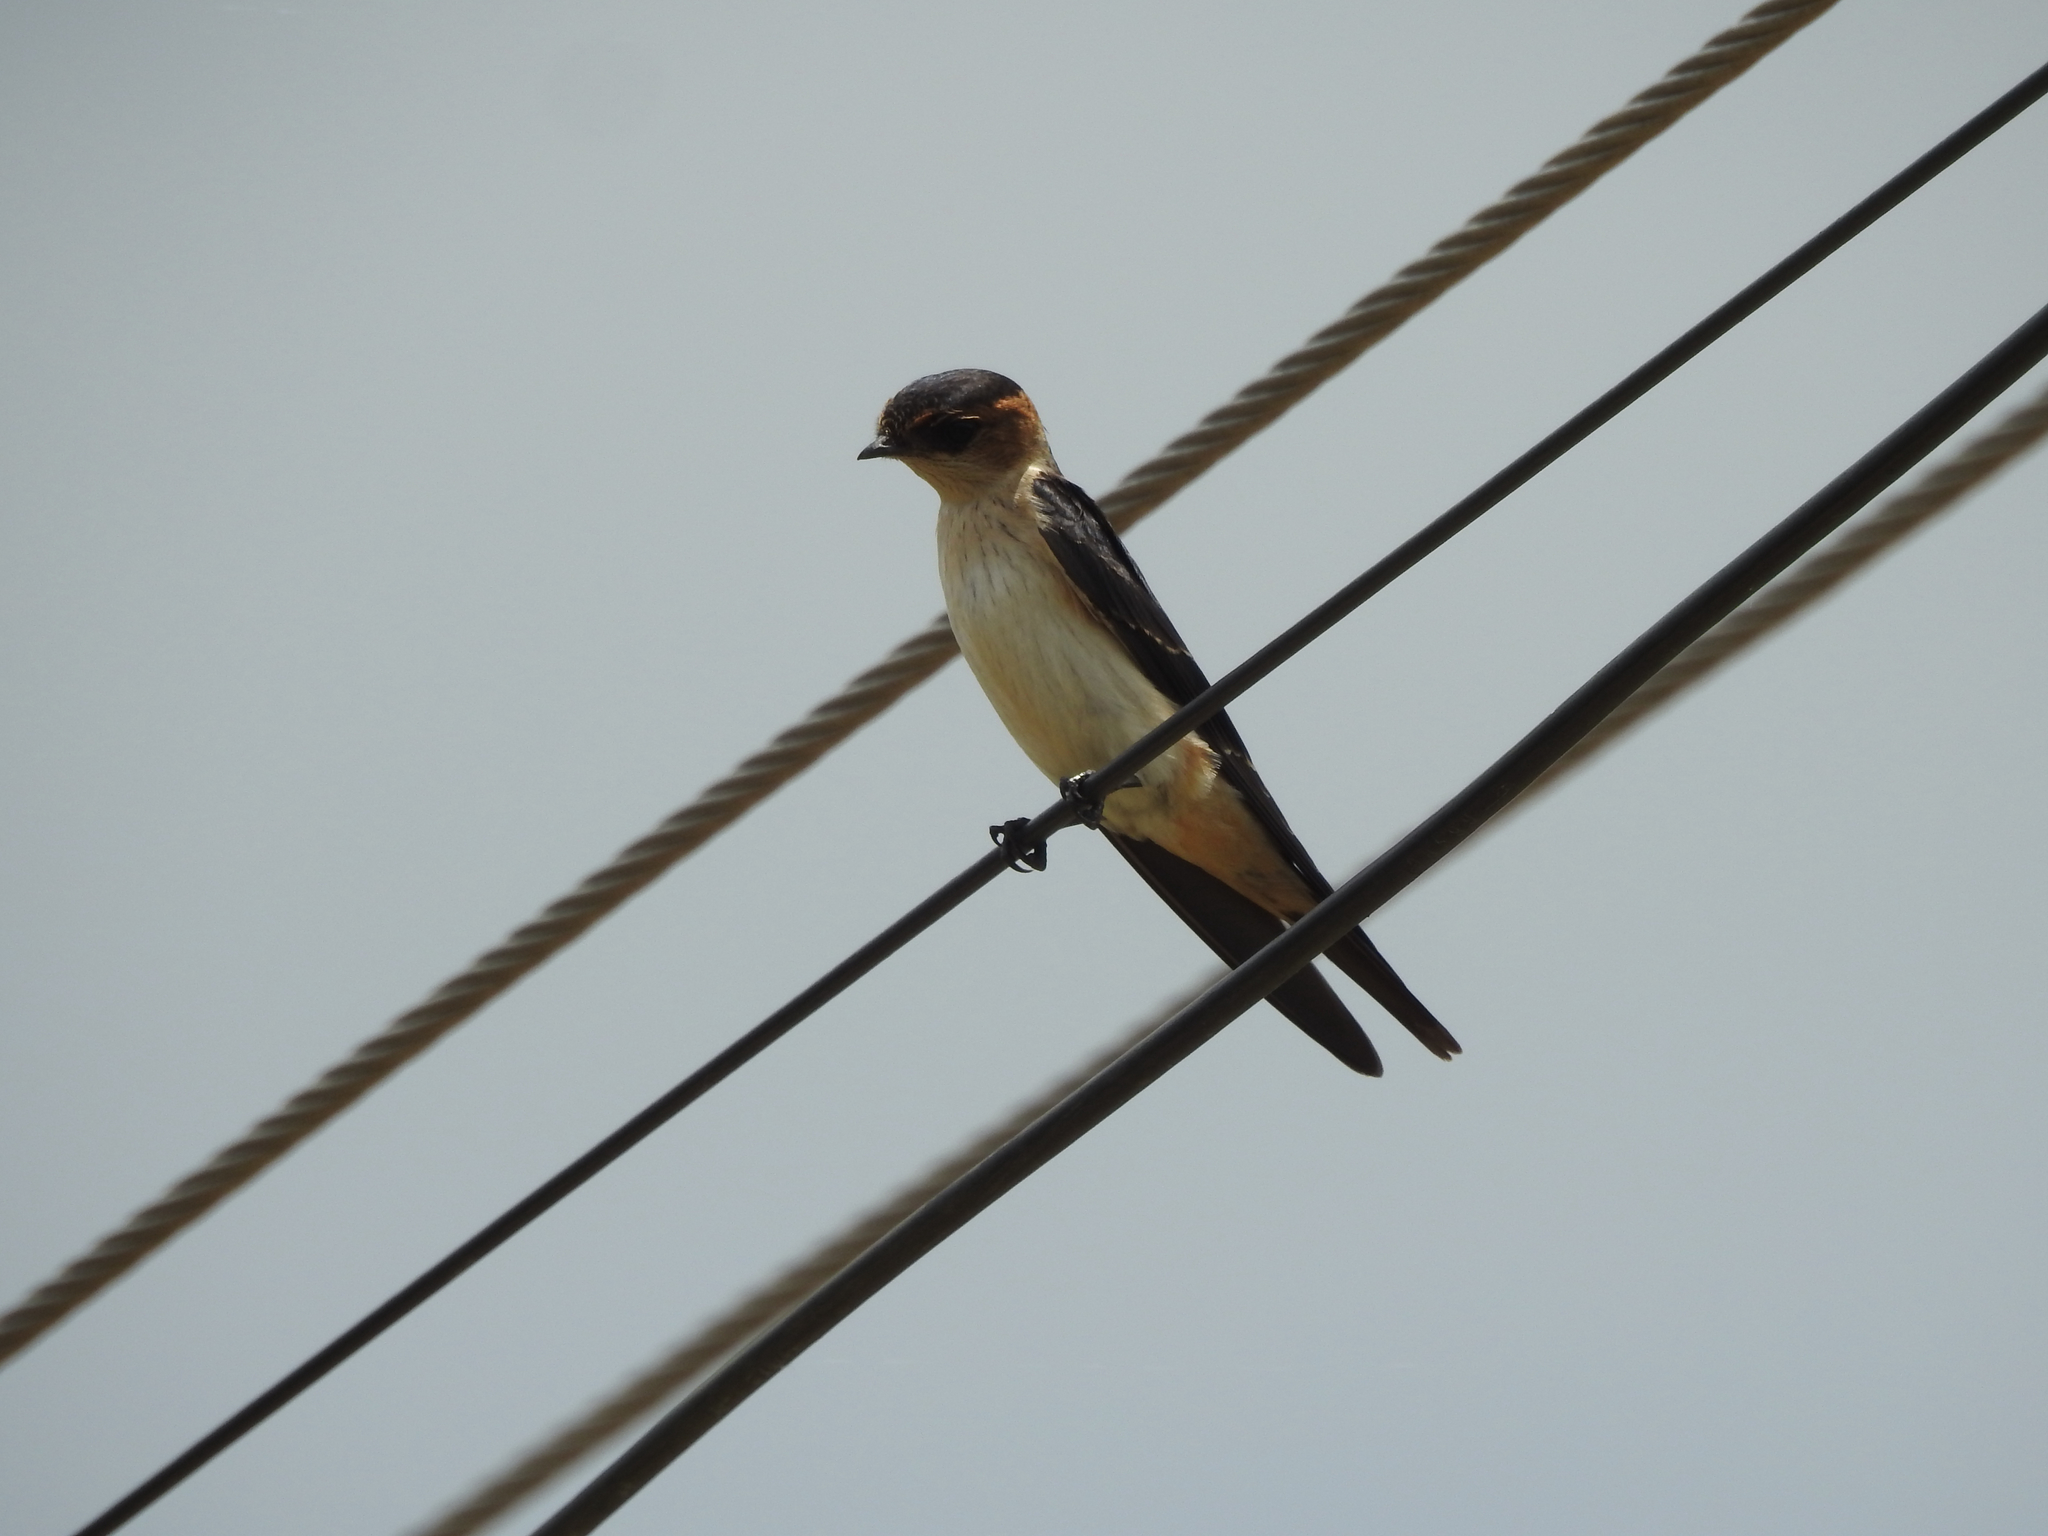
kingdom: Animalia
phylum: Chordata
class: Aves
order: Passeriformes
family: Hirundinidae
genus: Cecropis
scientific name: Cecropis daurica
